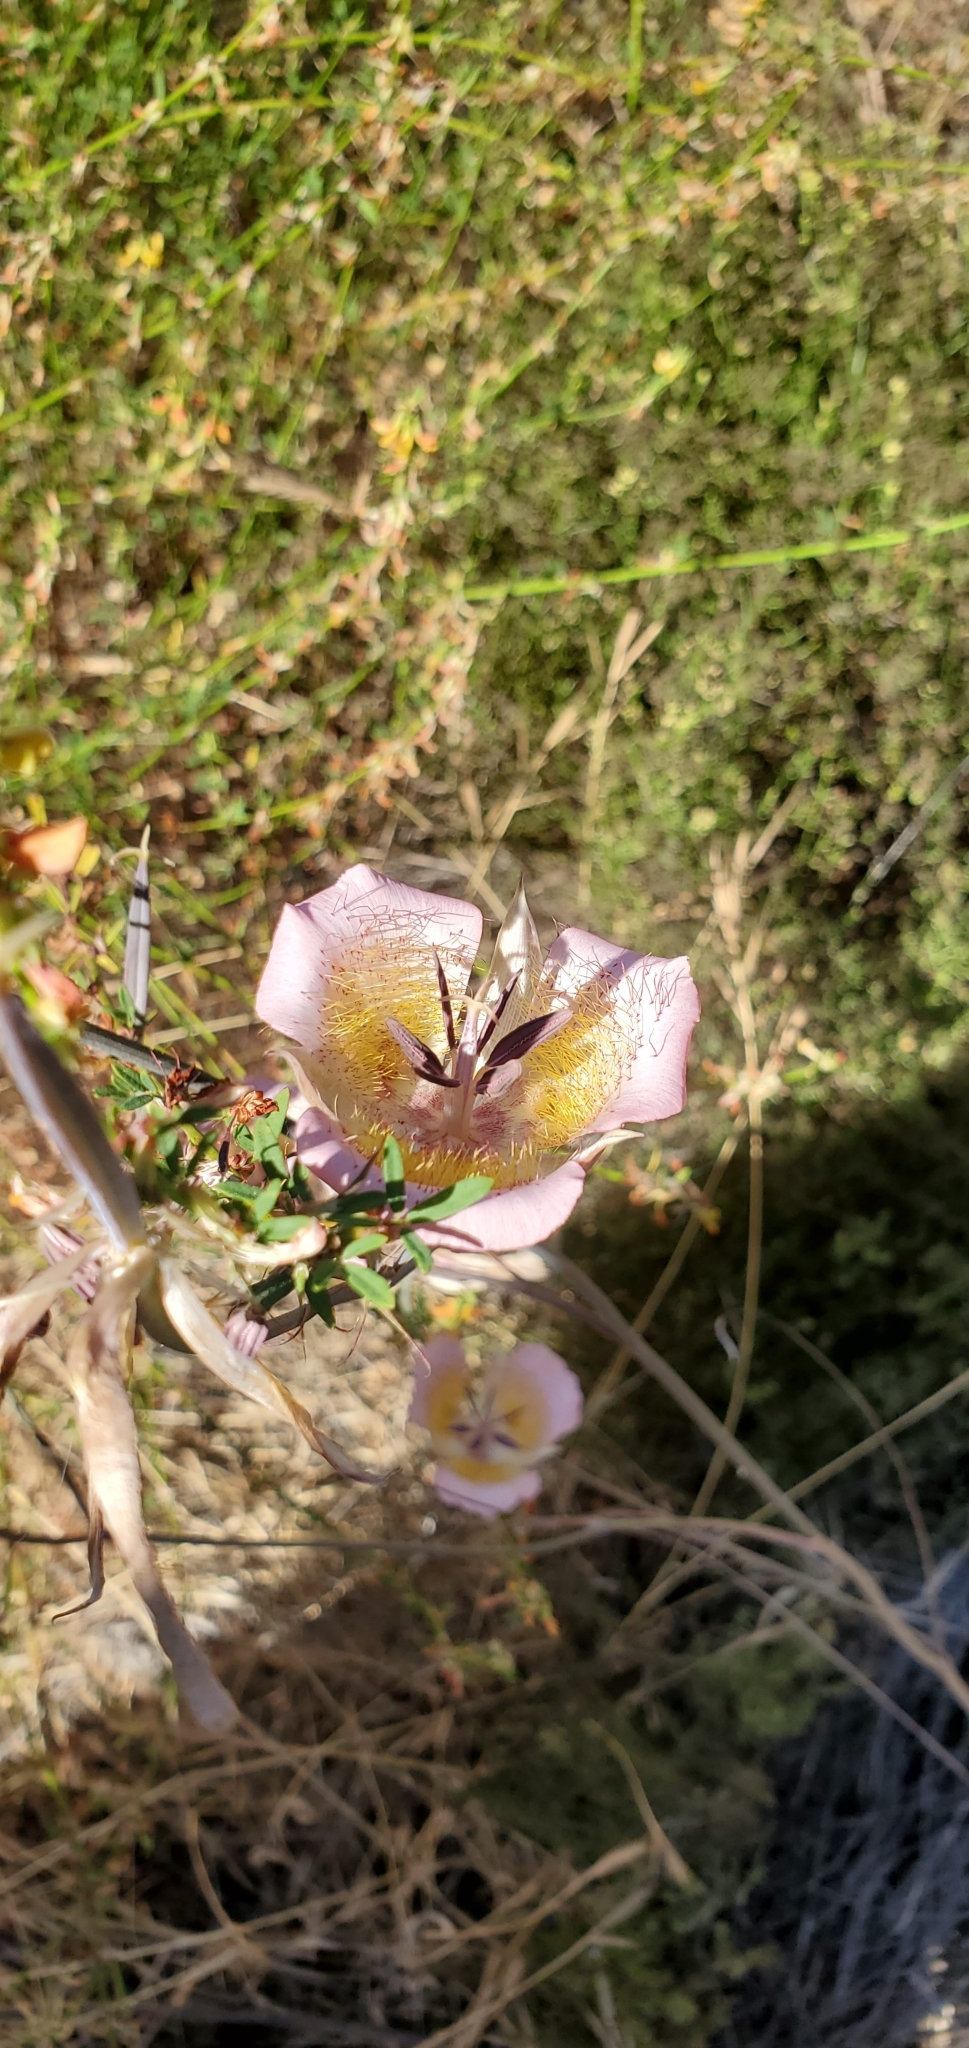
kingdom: Plantae
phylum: Tracheophyta
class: Liliopsida
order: Liliales
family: Liliaceae
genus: Calochortus
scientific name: Calochortus plummerae
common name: Plummer's mariposa-lily
